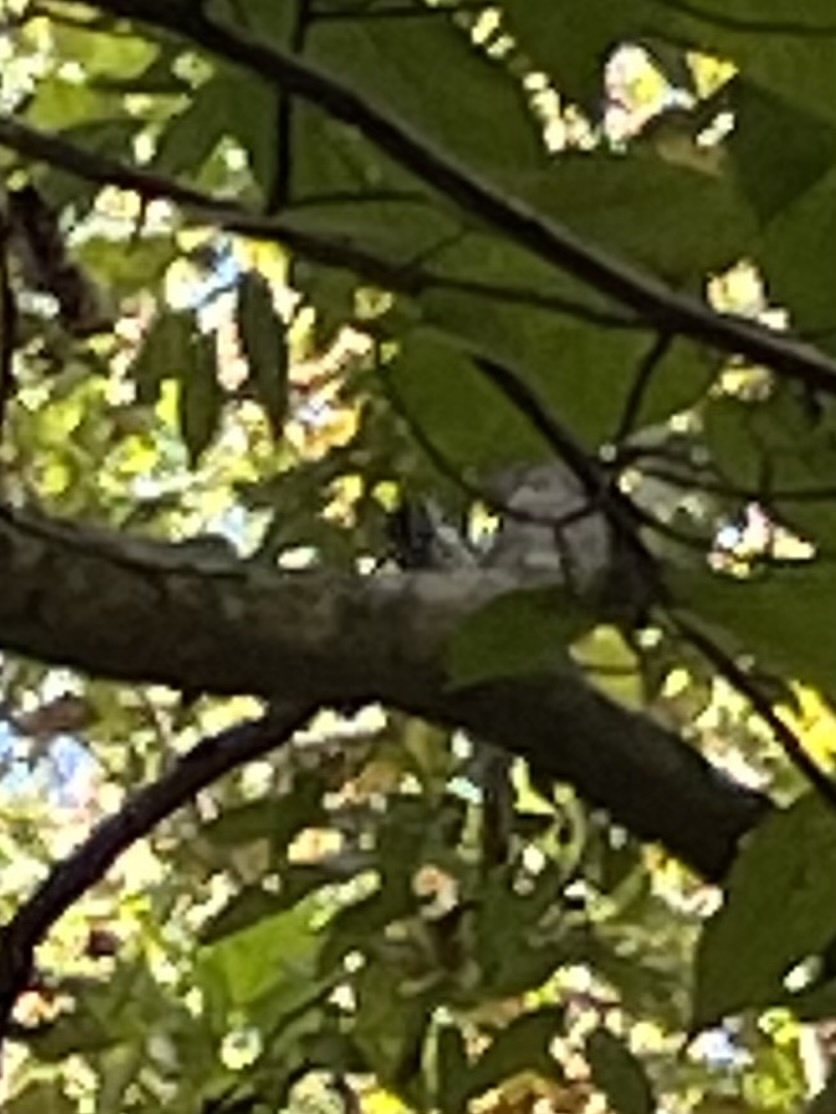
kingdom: Animalia
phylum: Chordata
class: Aves
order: Passeriformes
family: Parulidae
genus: Mniotilta
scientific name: Mniotilta varia
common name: Black-and-white warbler
